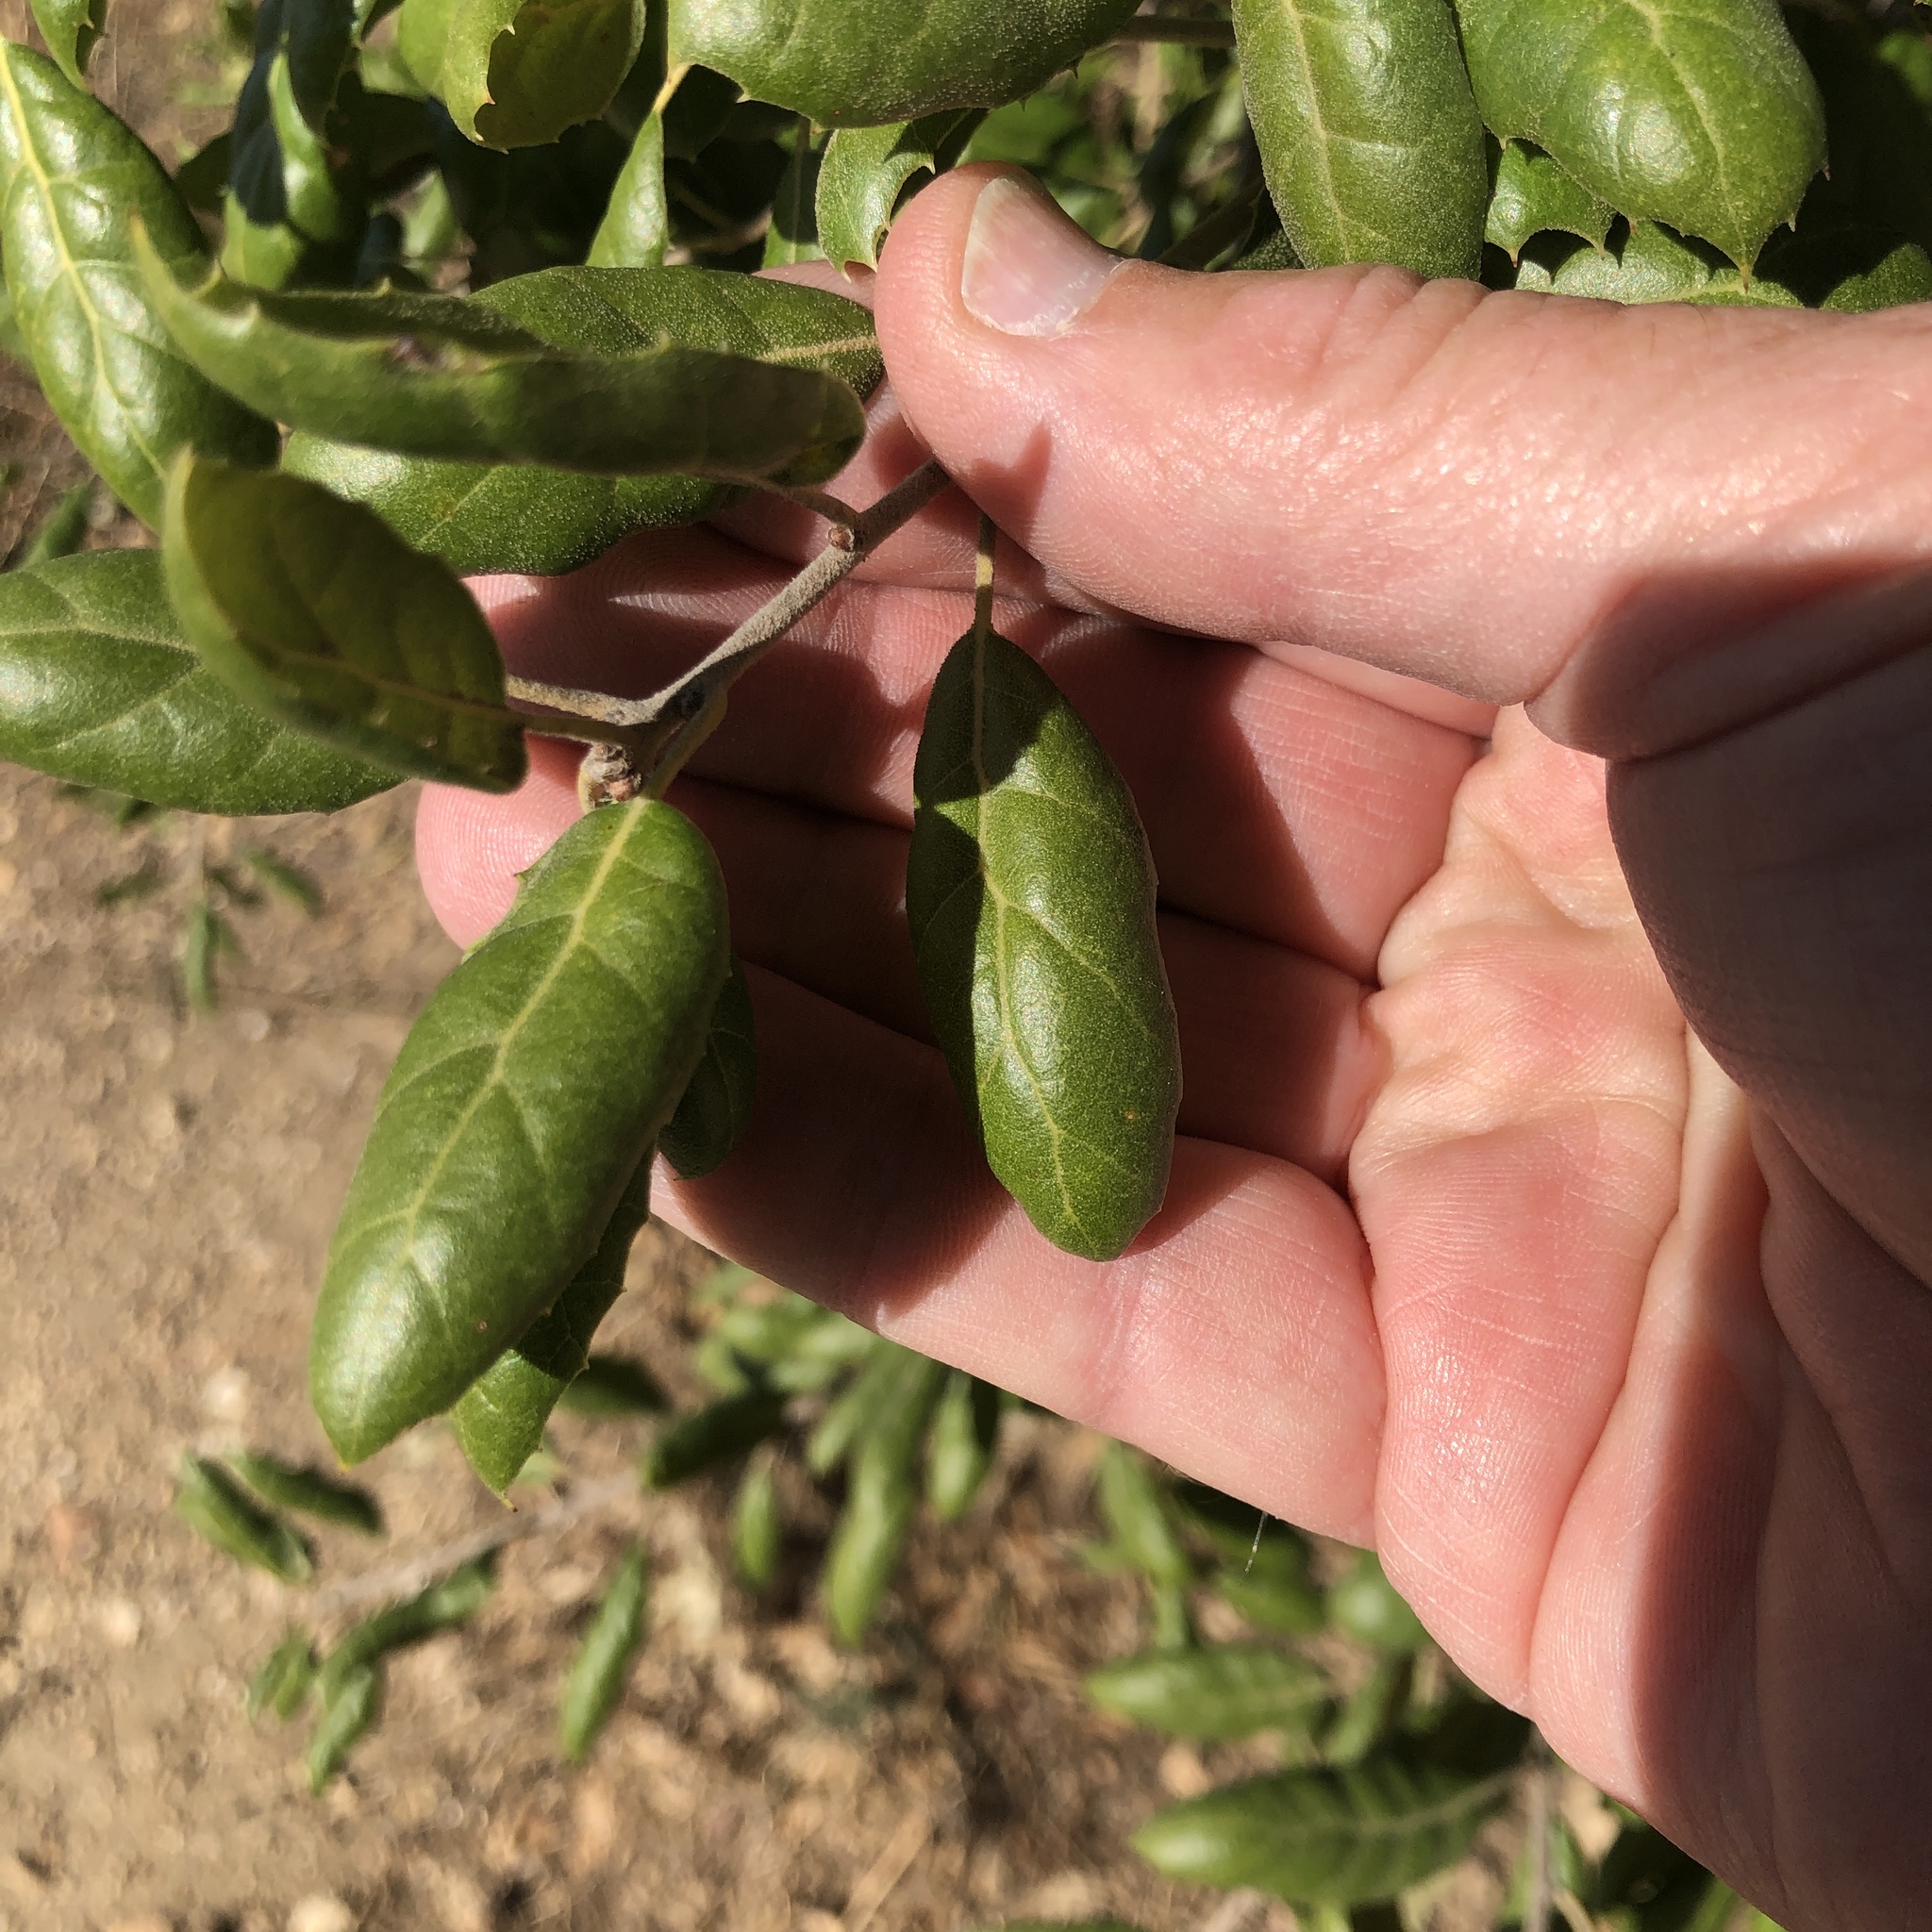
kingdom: Plantae
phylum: Tracheophyta
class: Magnoliopsida
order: Fagales
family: Fagaceae
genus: Quercus
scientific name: Quercus agrifolia
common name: California live oak
